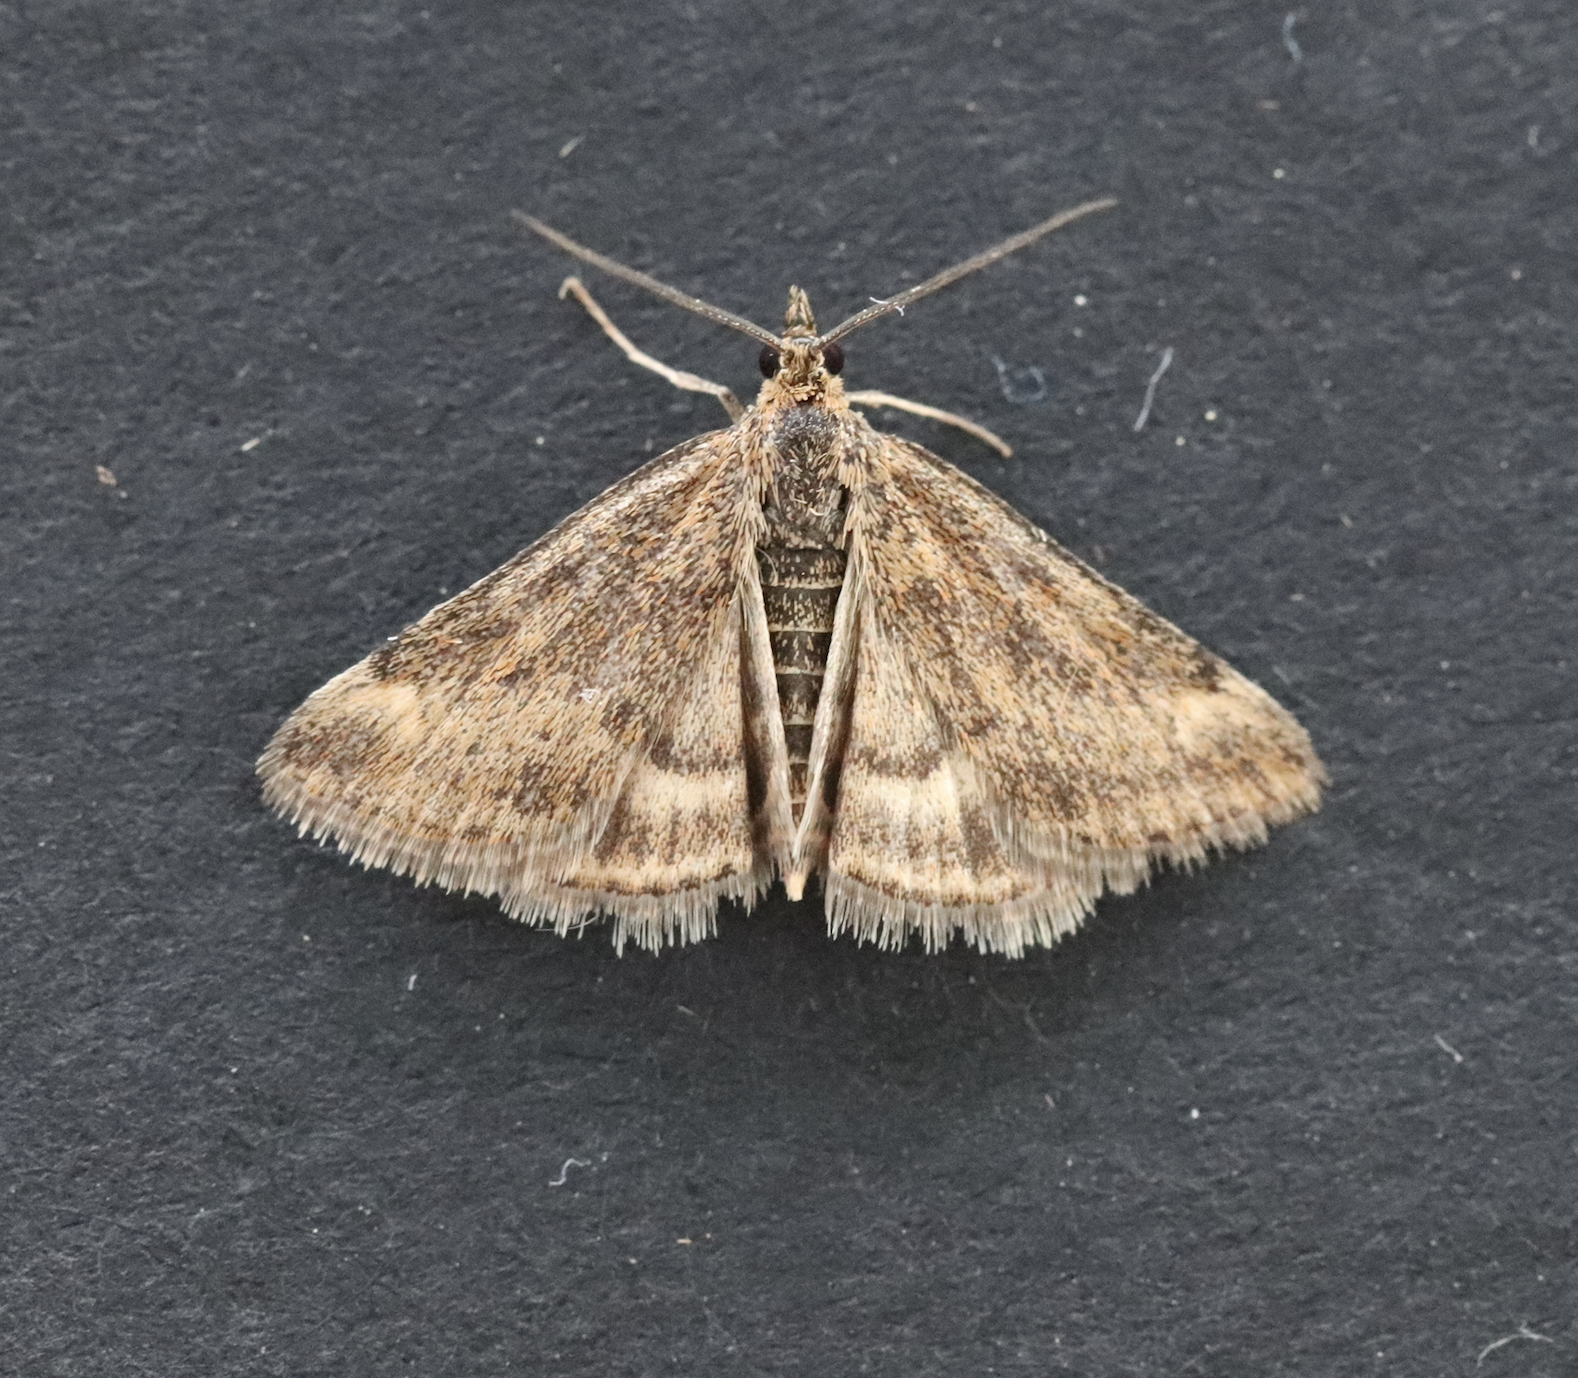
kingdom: Animalia
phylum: Arthropoda
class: Insecta
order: Lepidoptera
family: Crambidae
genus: Pyrausta
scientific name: Pyrausta despicata
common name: Straw-barred pearl
